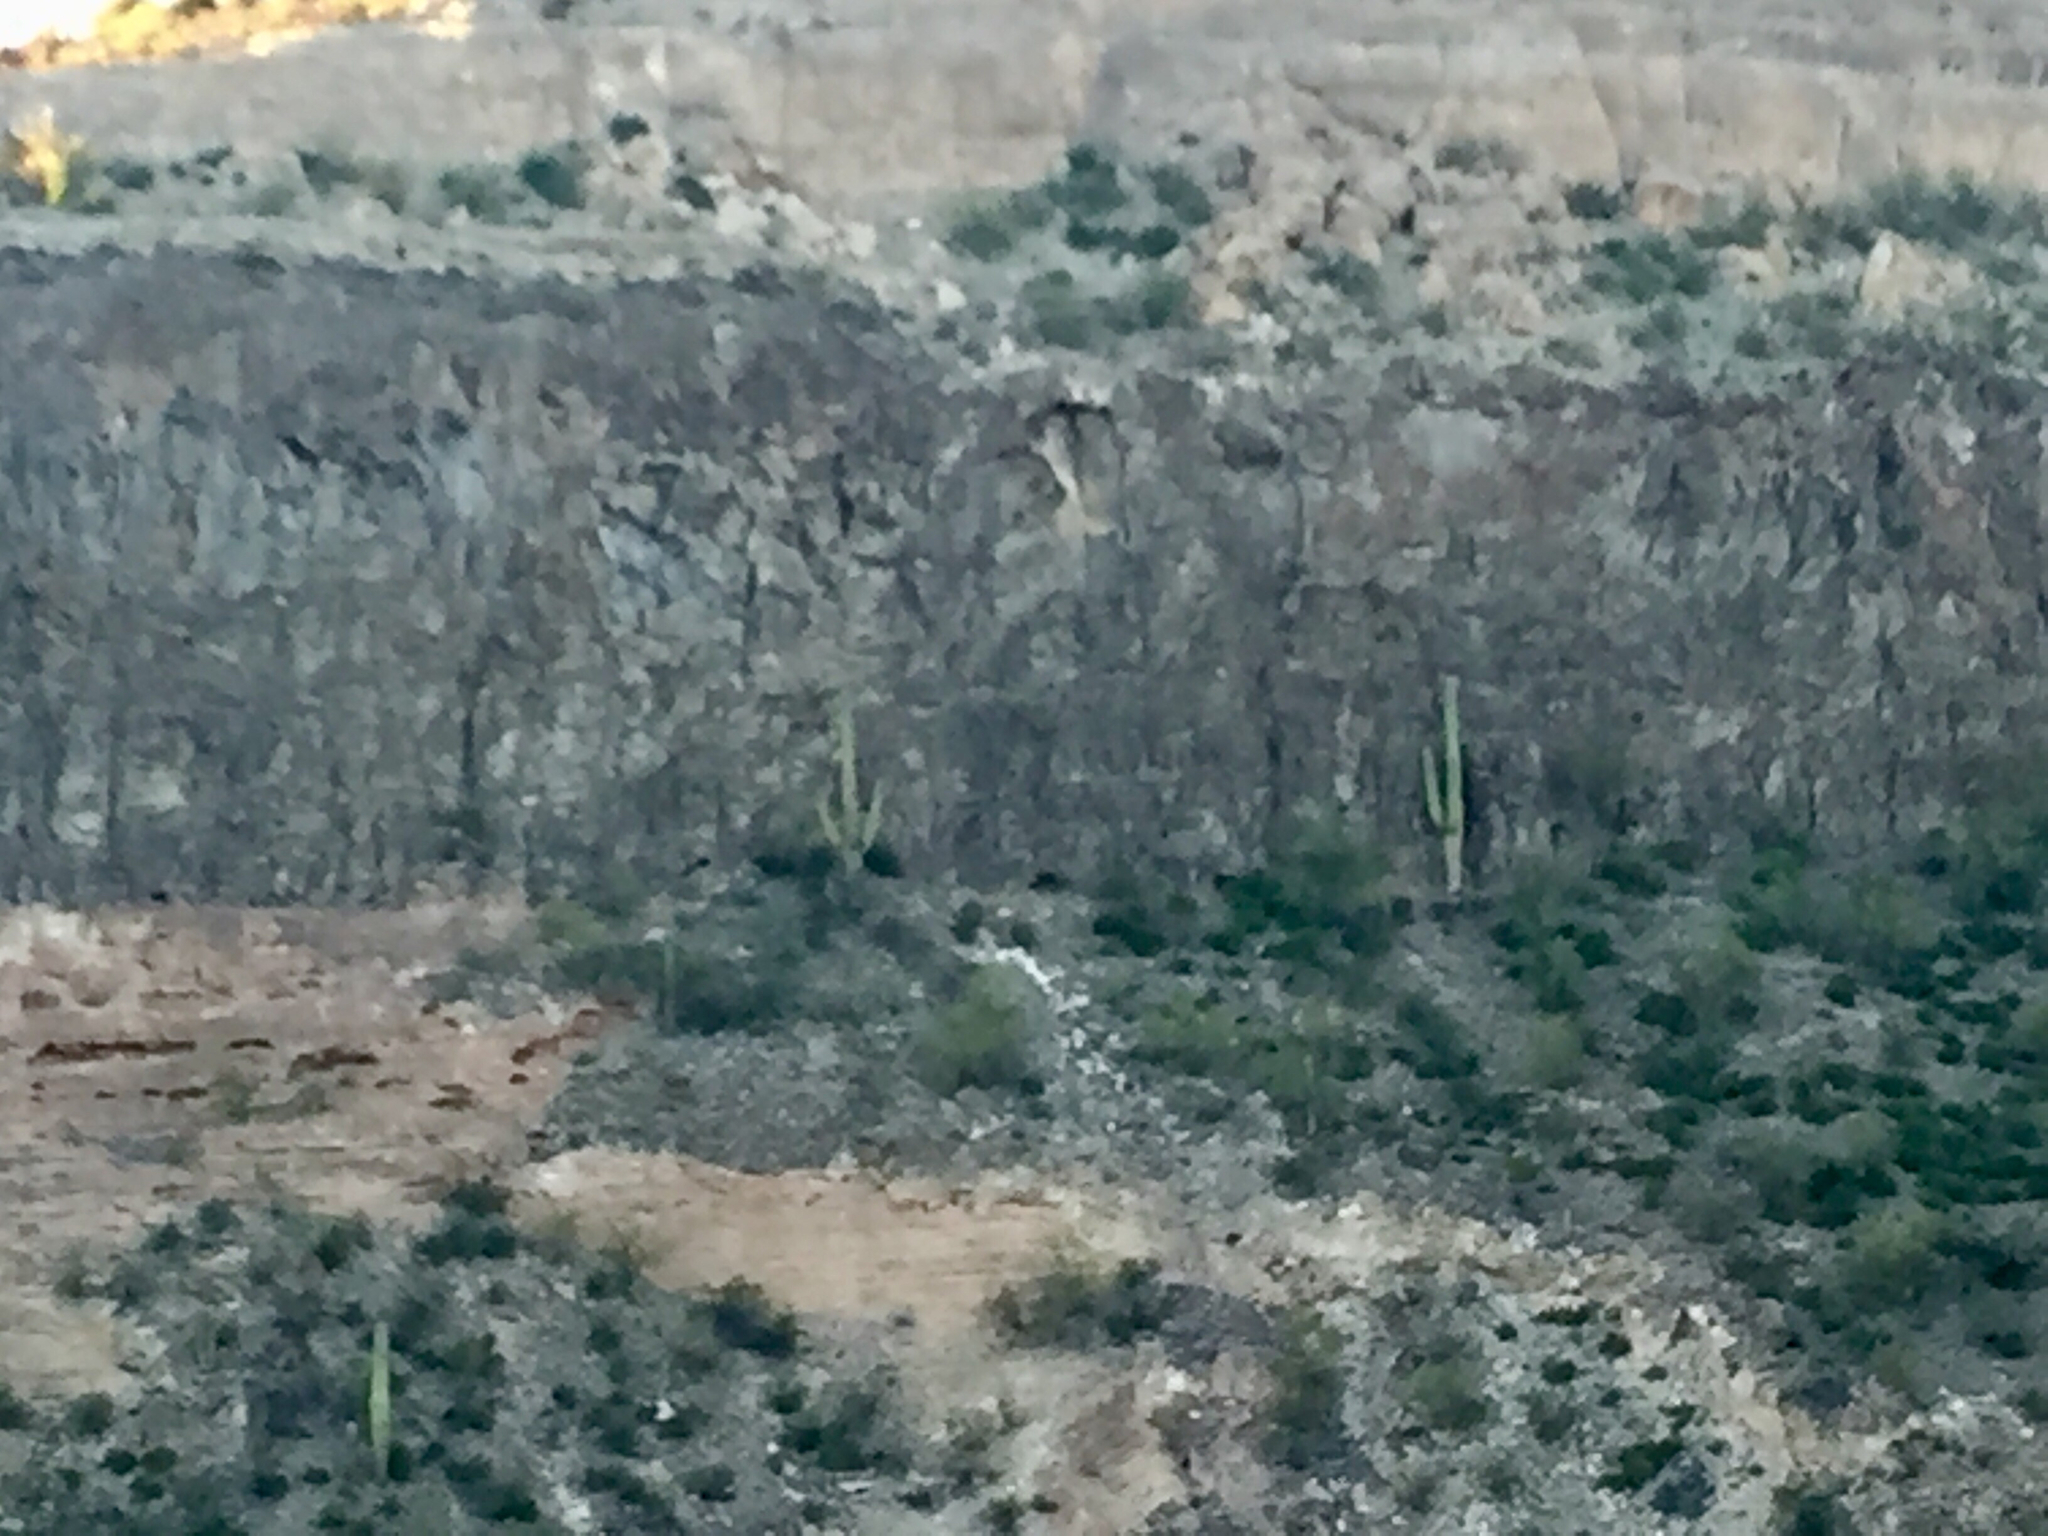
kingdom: Plantae
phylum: Tracheophyta
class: Magnoliopsida
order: Caryophyllales
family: Cactaceae
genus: Carnegiea
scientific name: Carnegiea gigantea
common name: Saguaro
